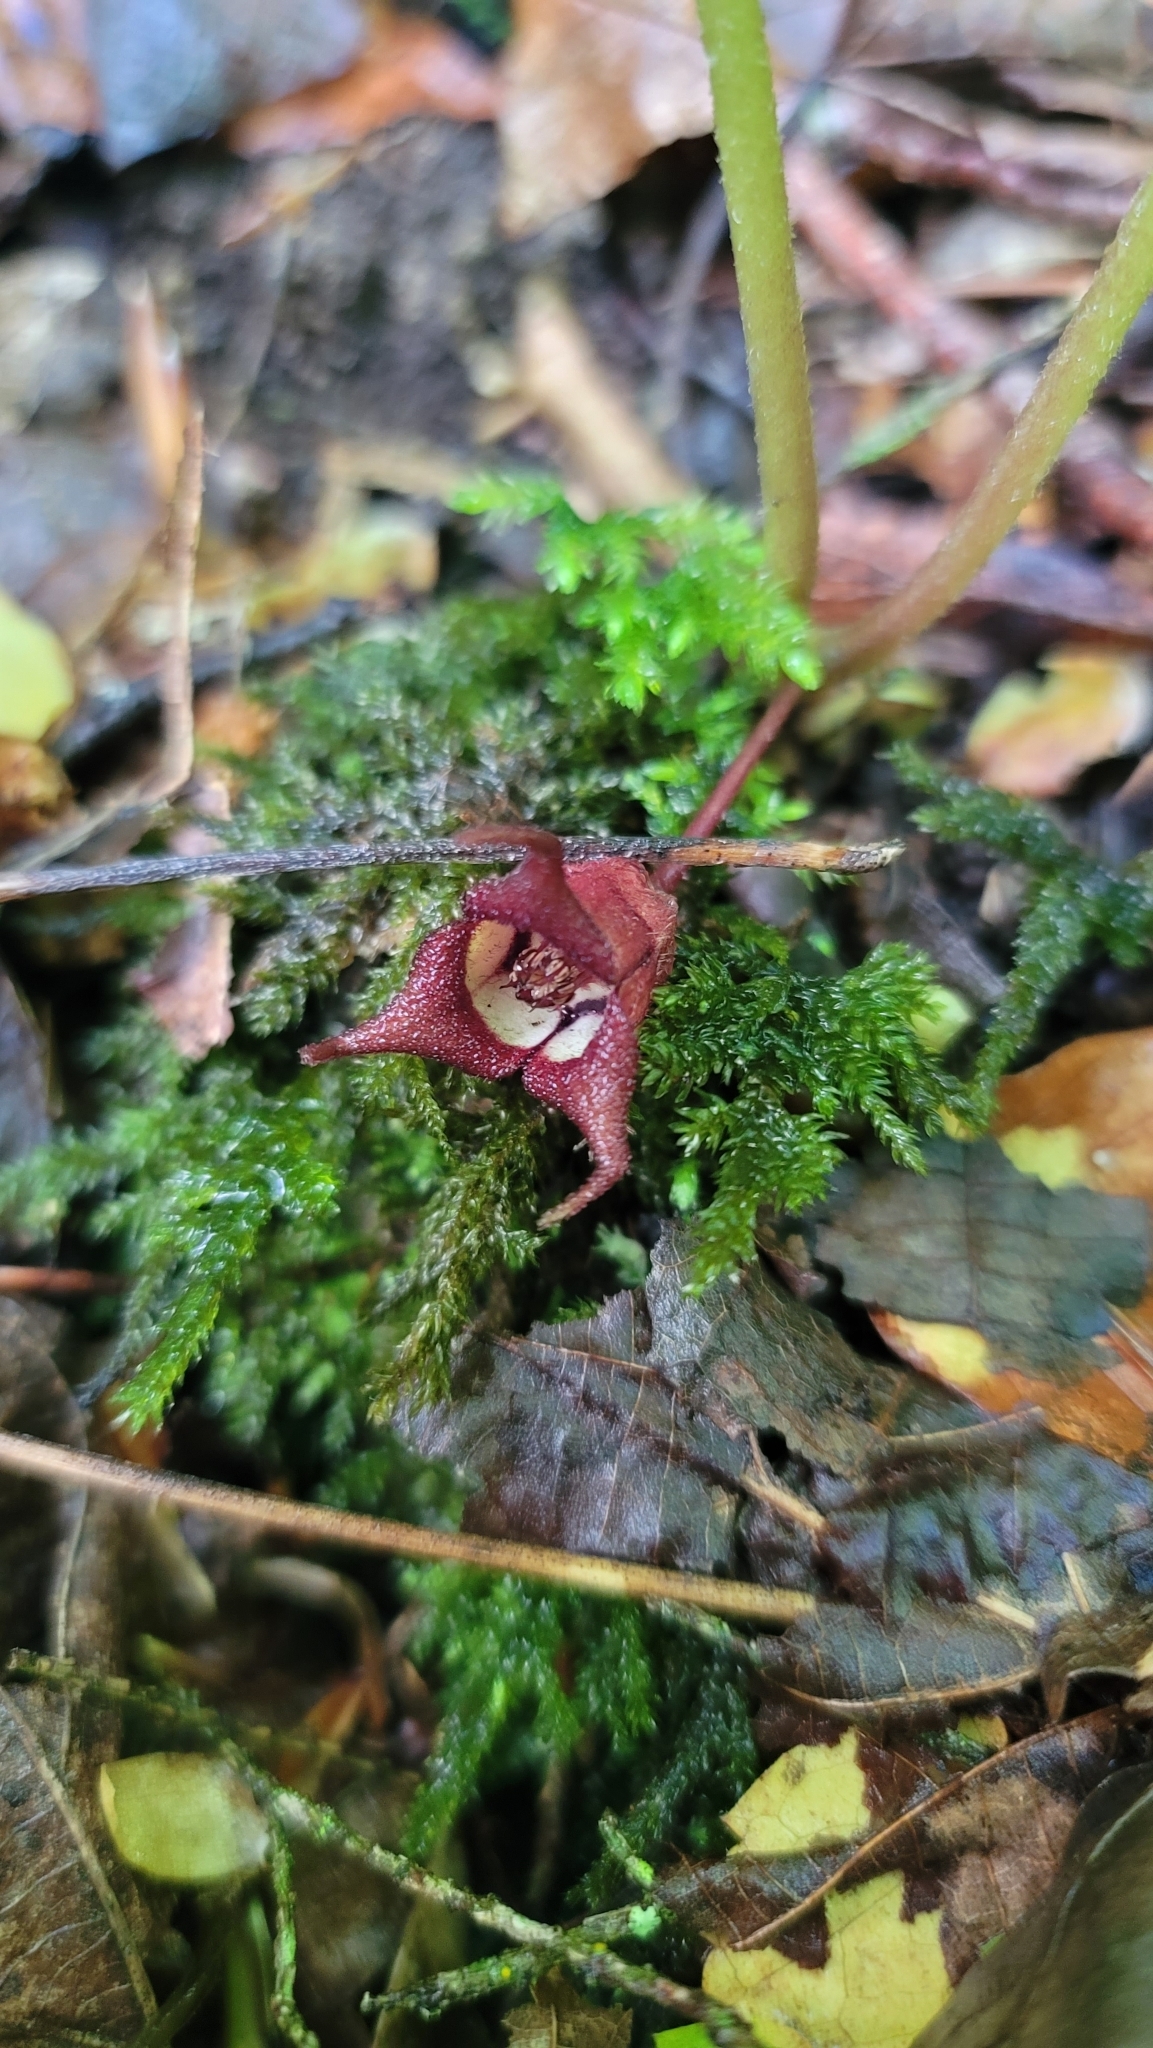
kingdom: Plantae
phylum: Tracheophyta
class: Magnoliopsida
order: Piperales
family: Aristolochiaceae
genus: Asarum
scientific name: Asarum canadense
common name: Wild ginger
